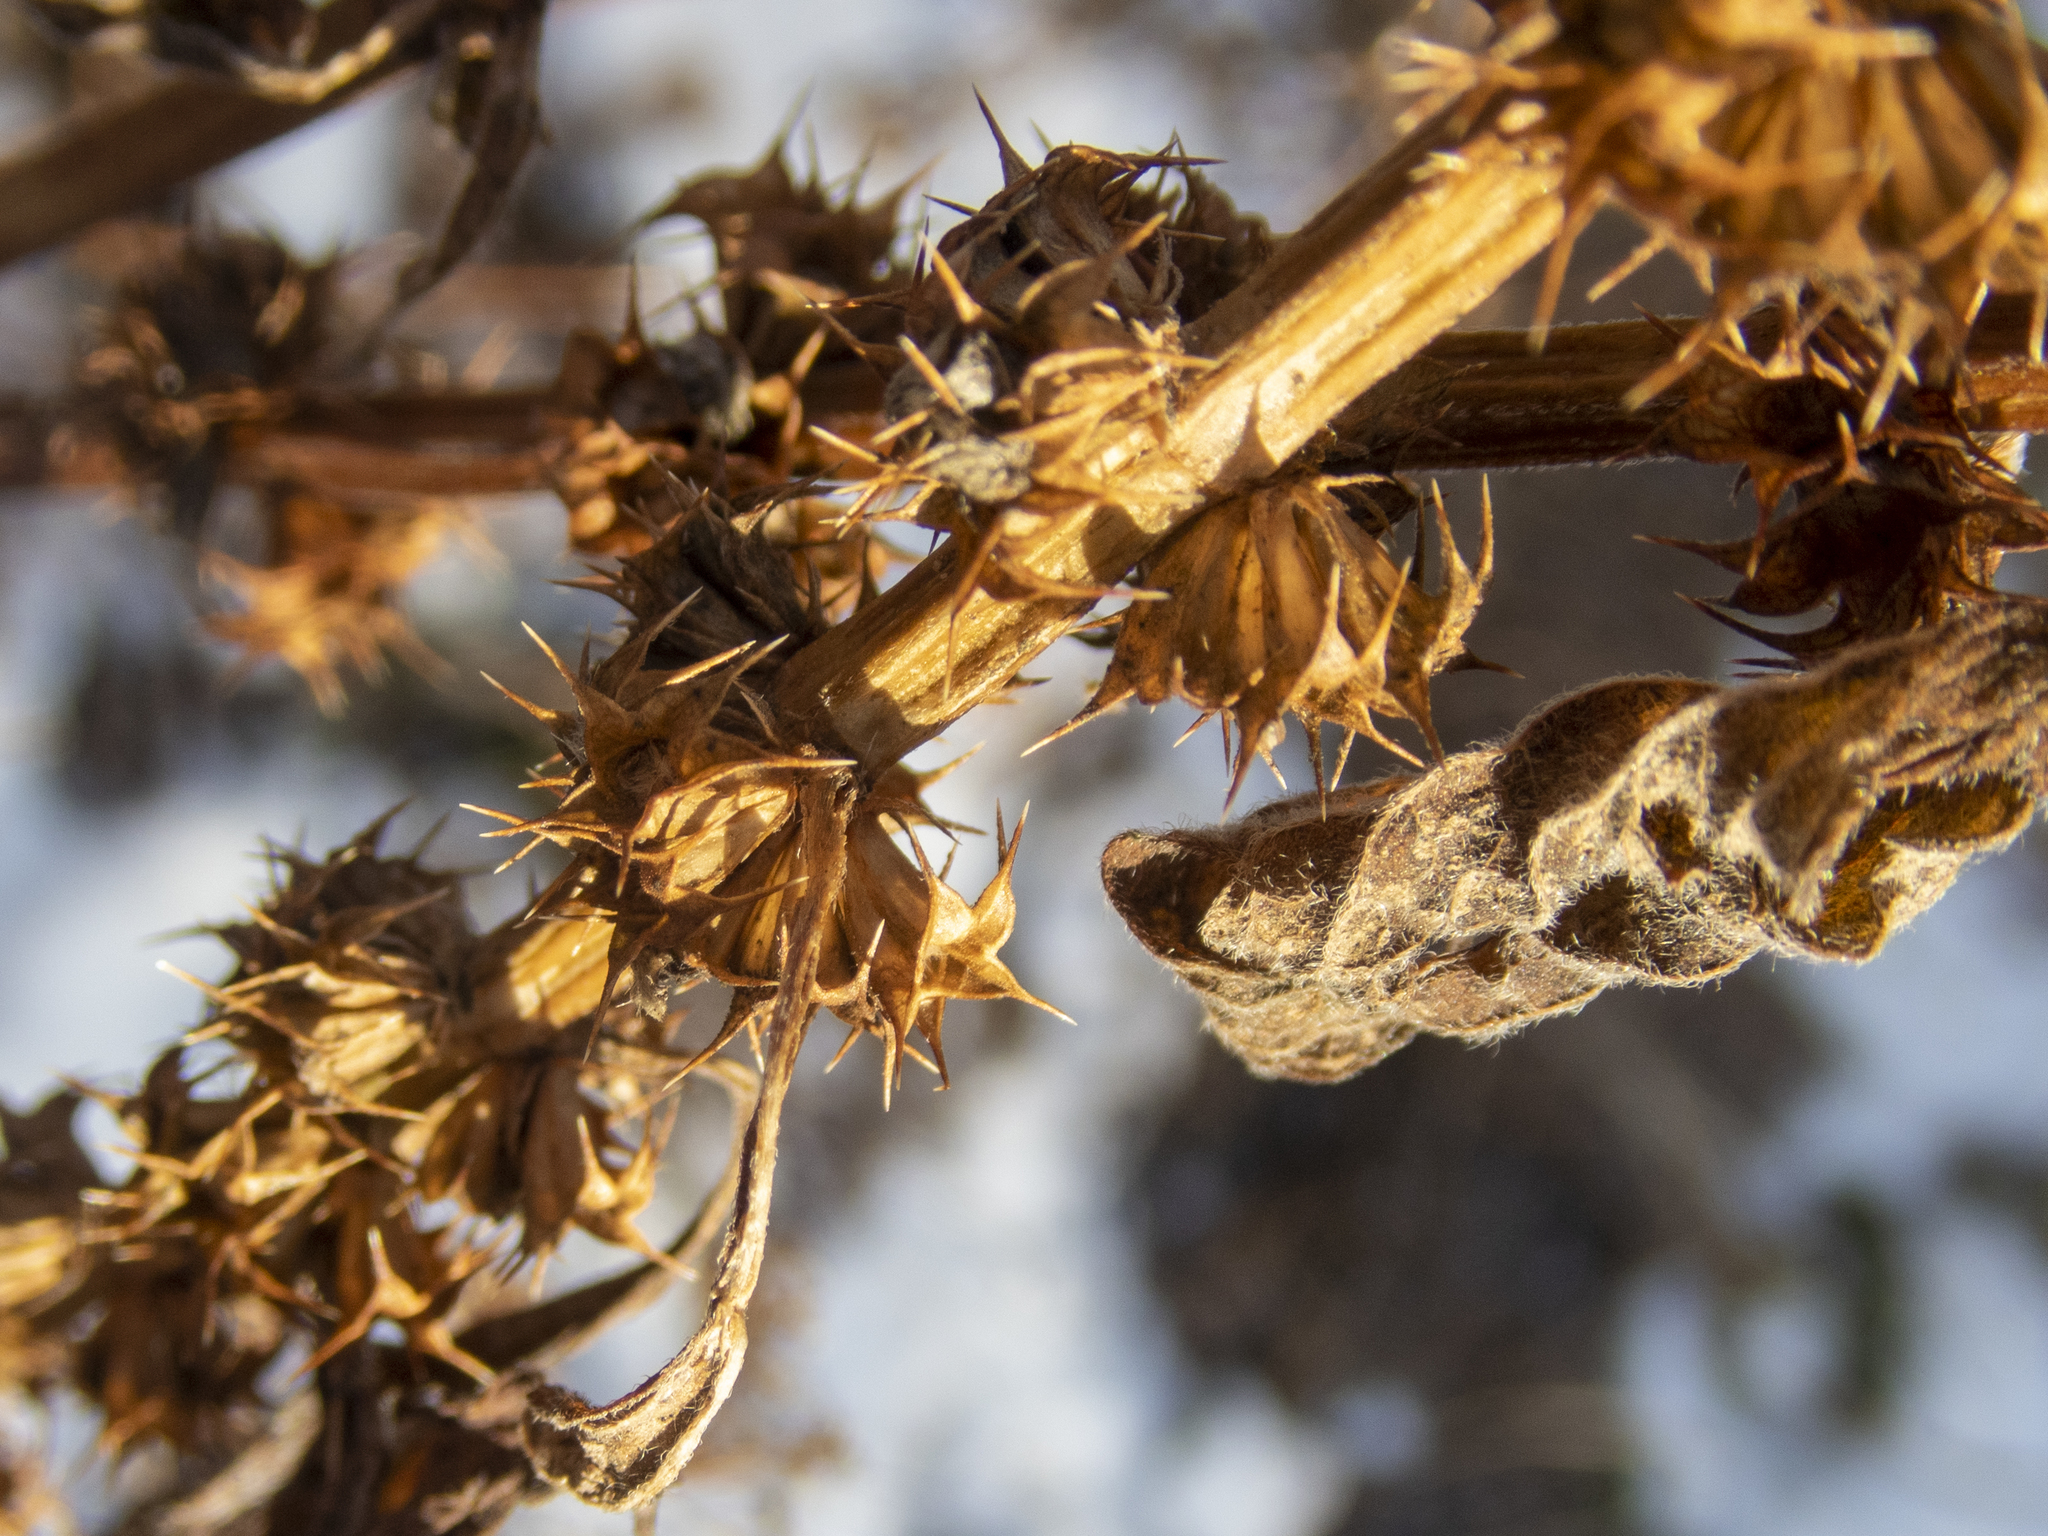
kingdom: Plantae
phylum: Tracheophyta
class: Magnoliopsida
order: Lamiales
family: Lamiaceae
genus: Leonurus
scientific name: Leonurus cardiaca
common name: Motherwort
